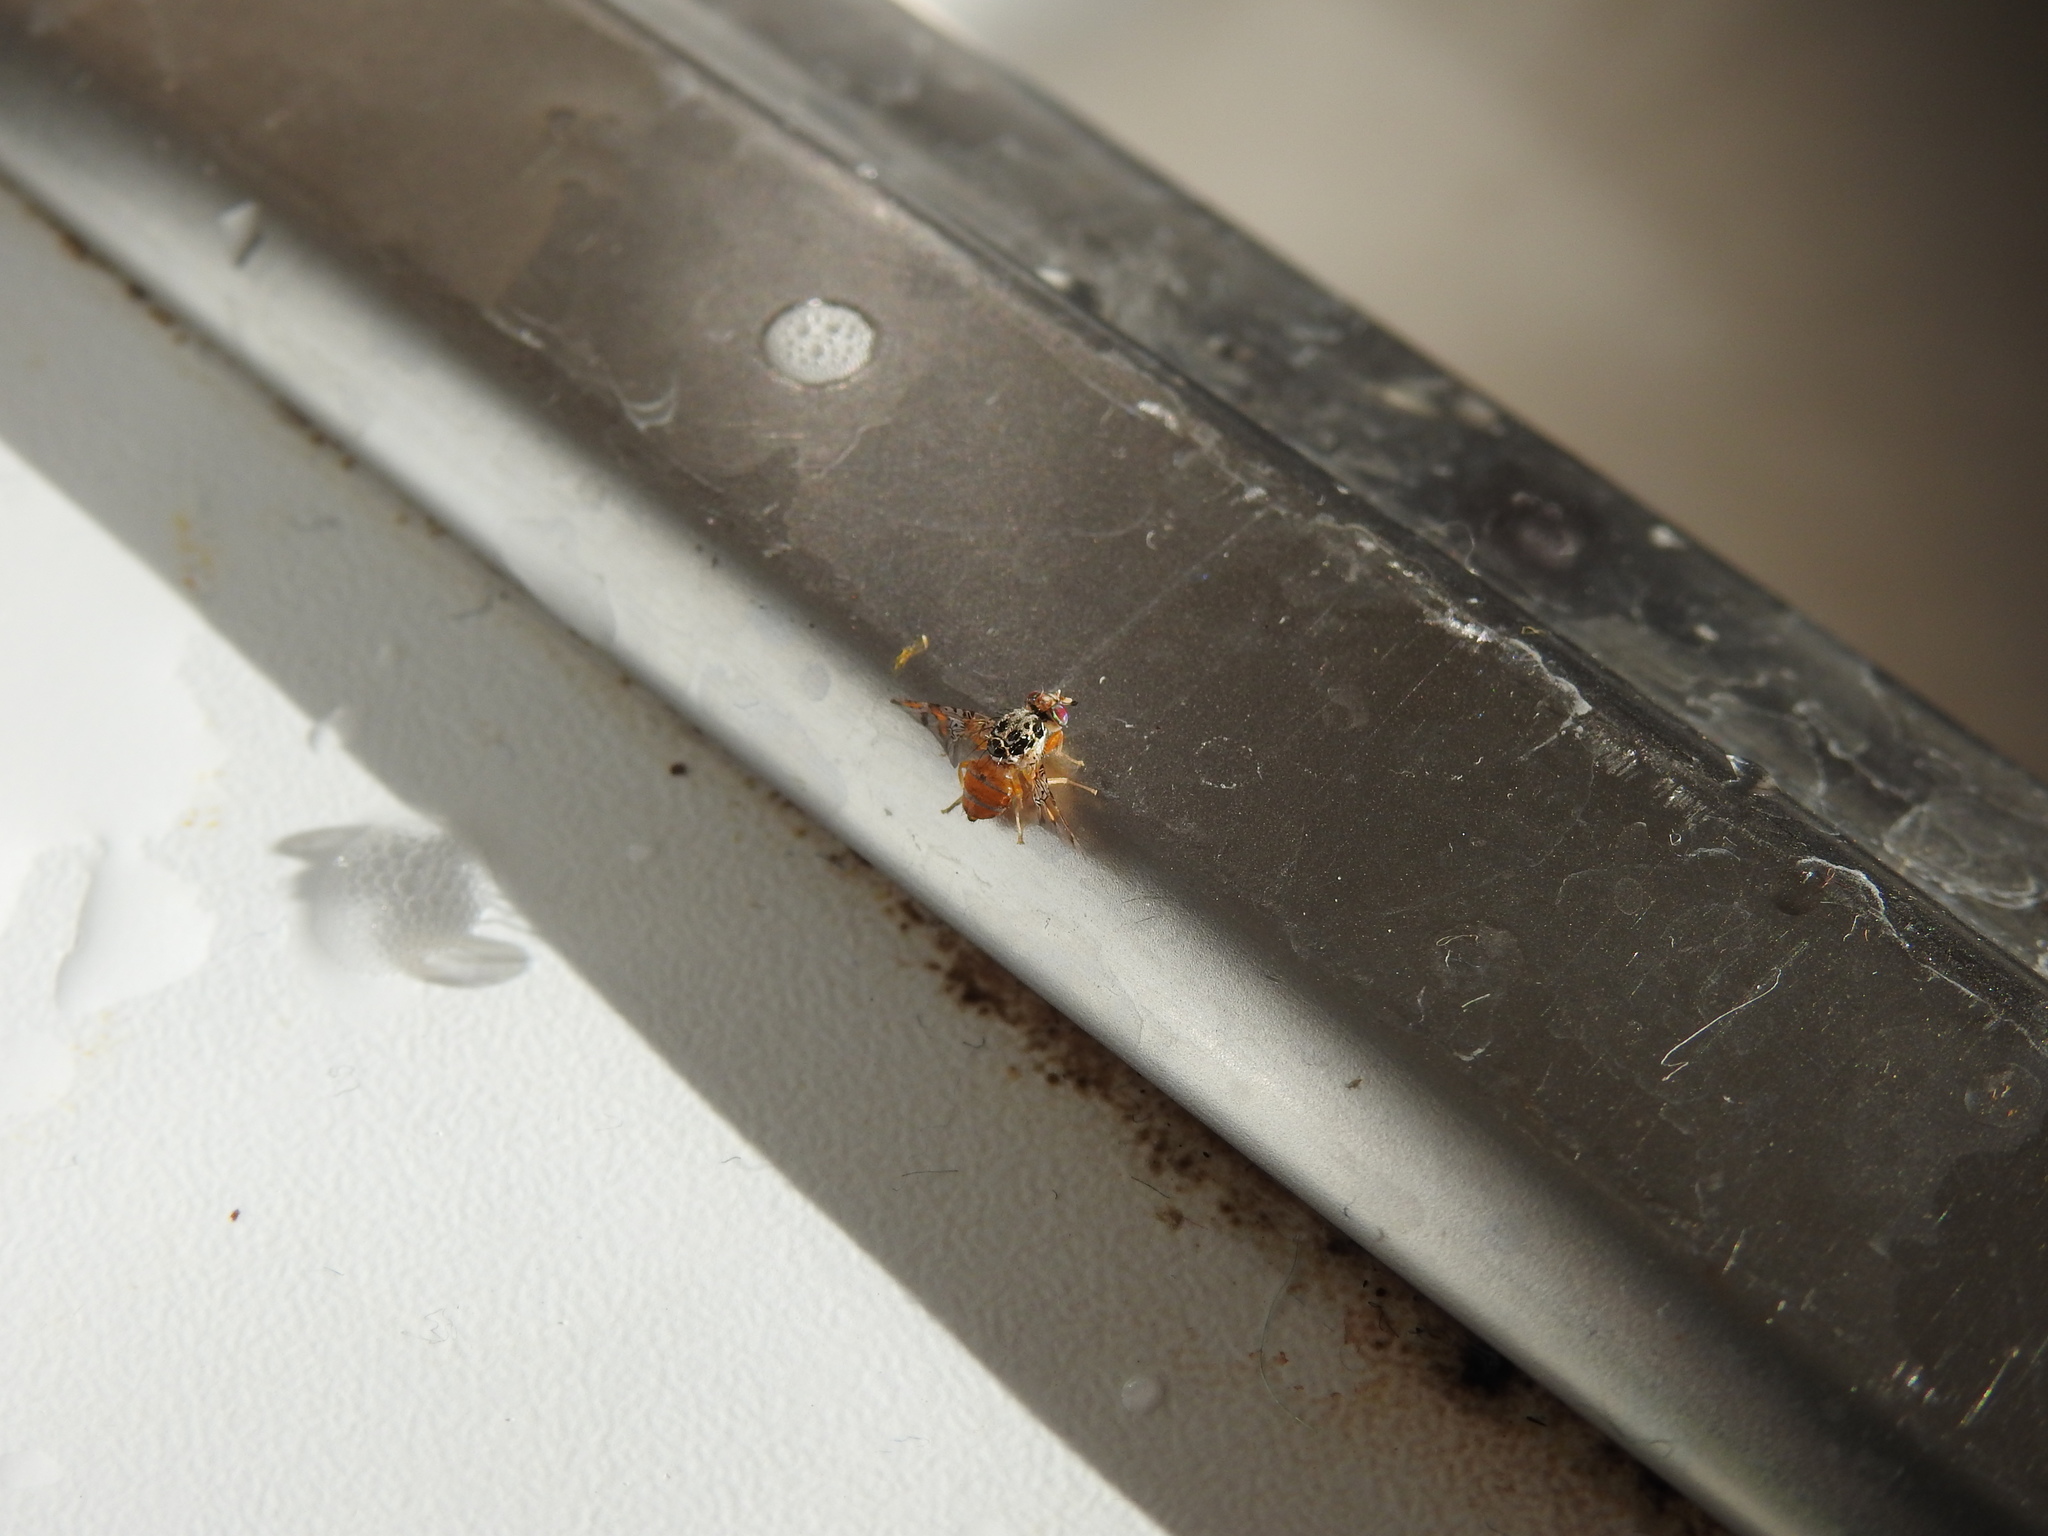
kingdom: Animalia
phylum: Arthropoda
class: Insecta
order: Diptera
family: Tephritidae
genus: Ceratitis
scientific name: Ceratitis capitata
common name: Mediterranean fruit fly
